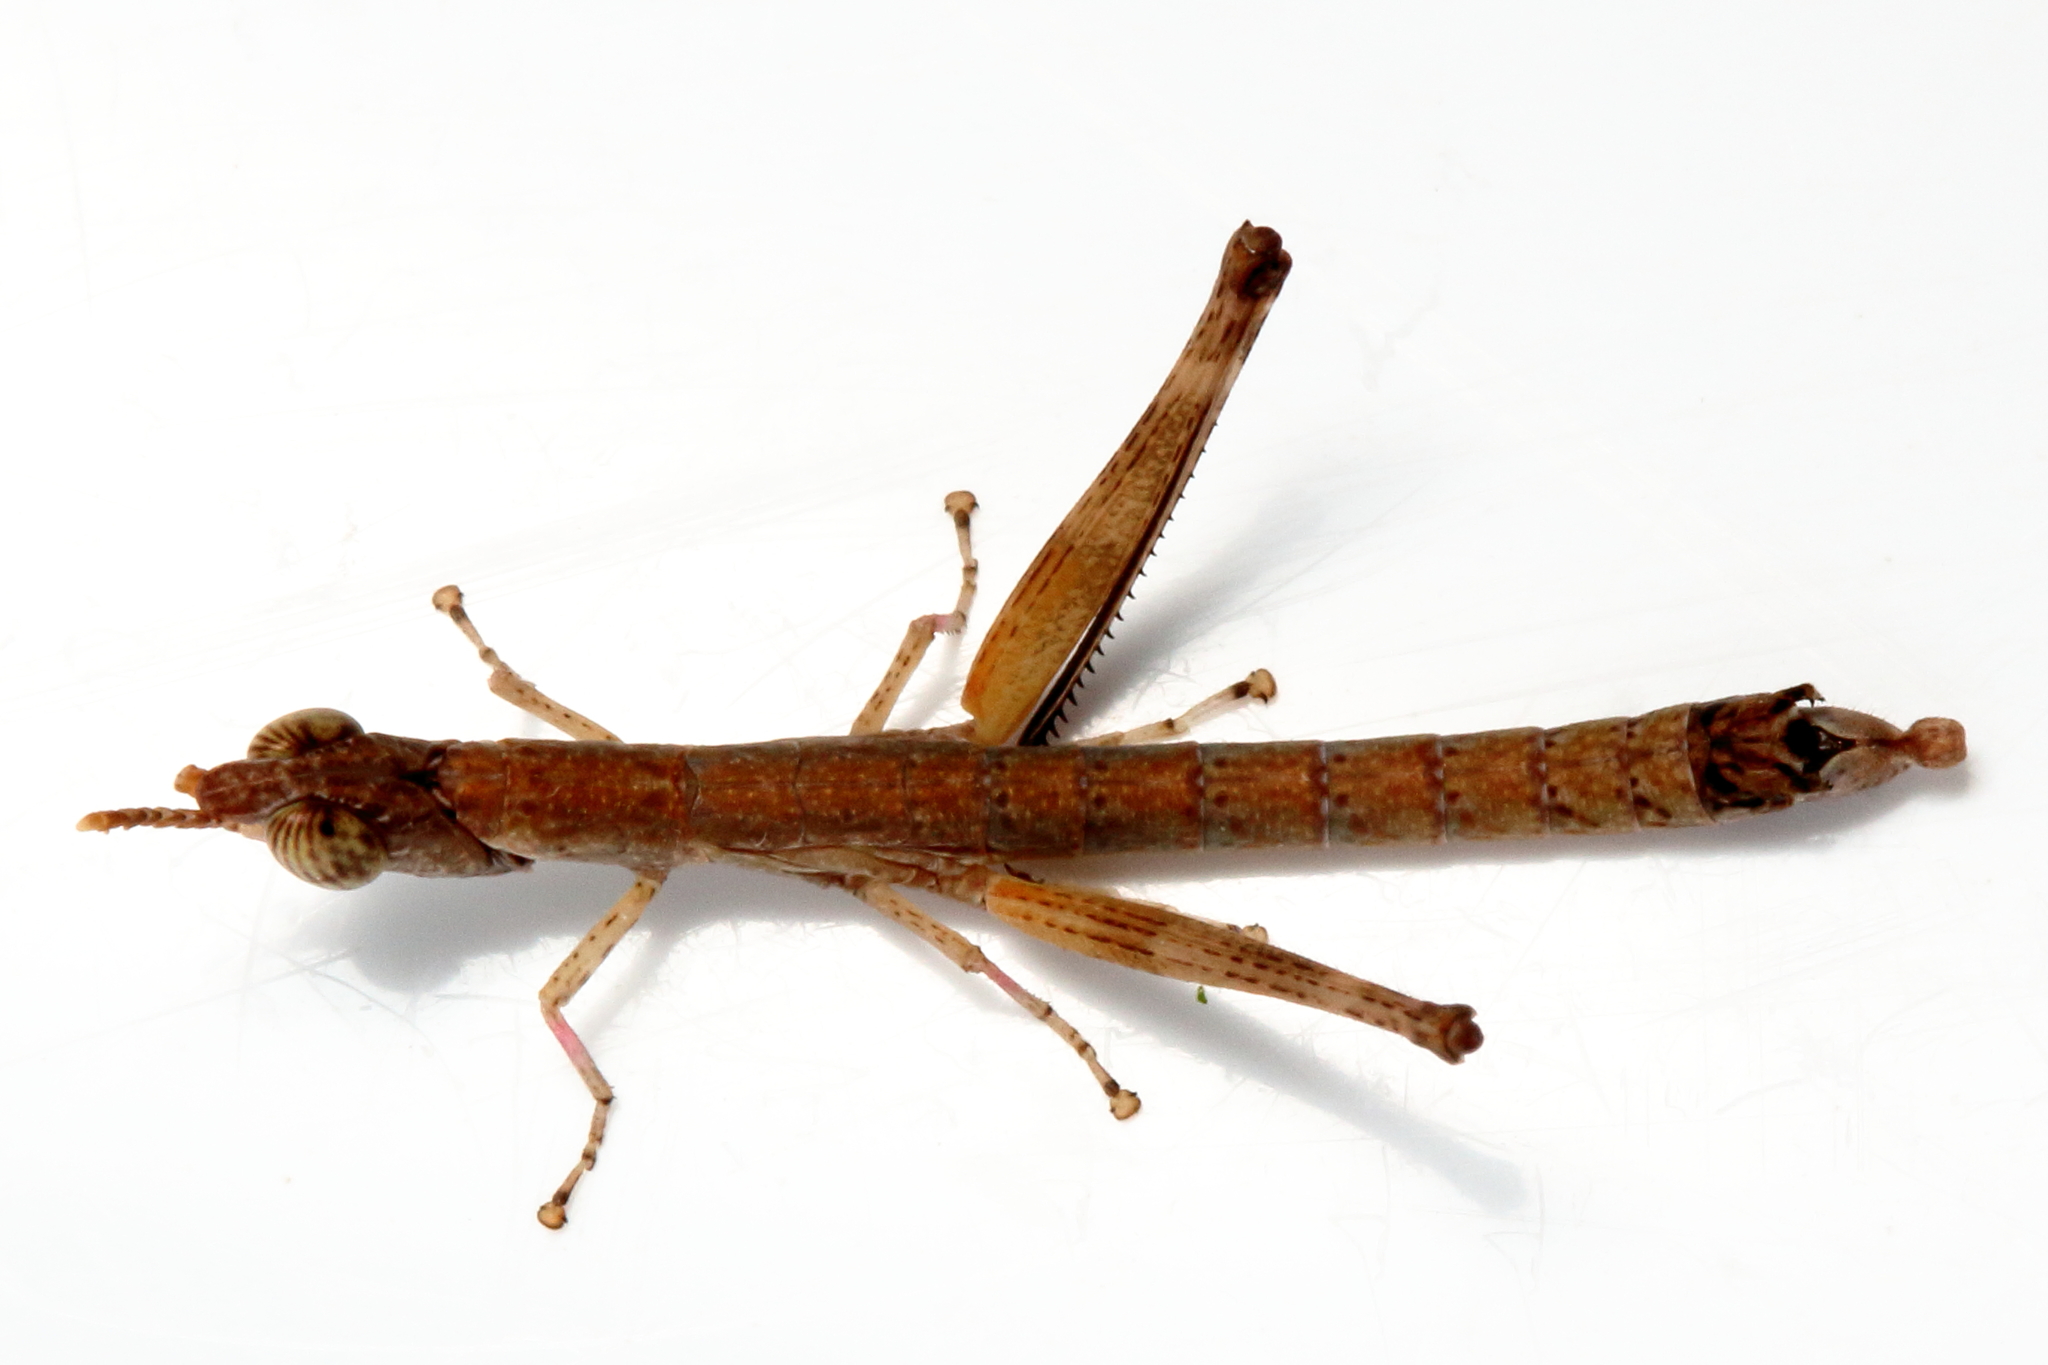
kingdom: Animalia
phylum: Arthropoda
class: Insecta
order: Orthoptera
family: Morabidae
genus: Micromeeka
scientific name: Micromeeka minuta
